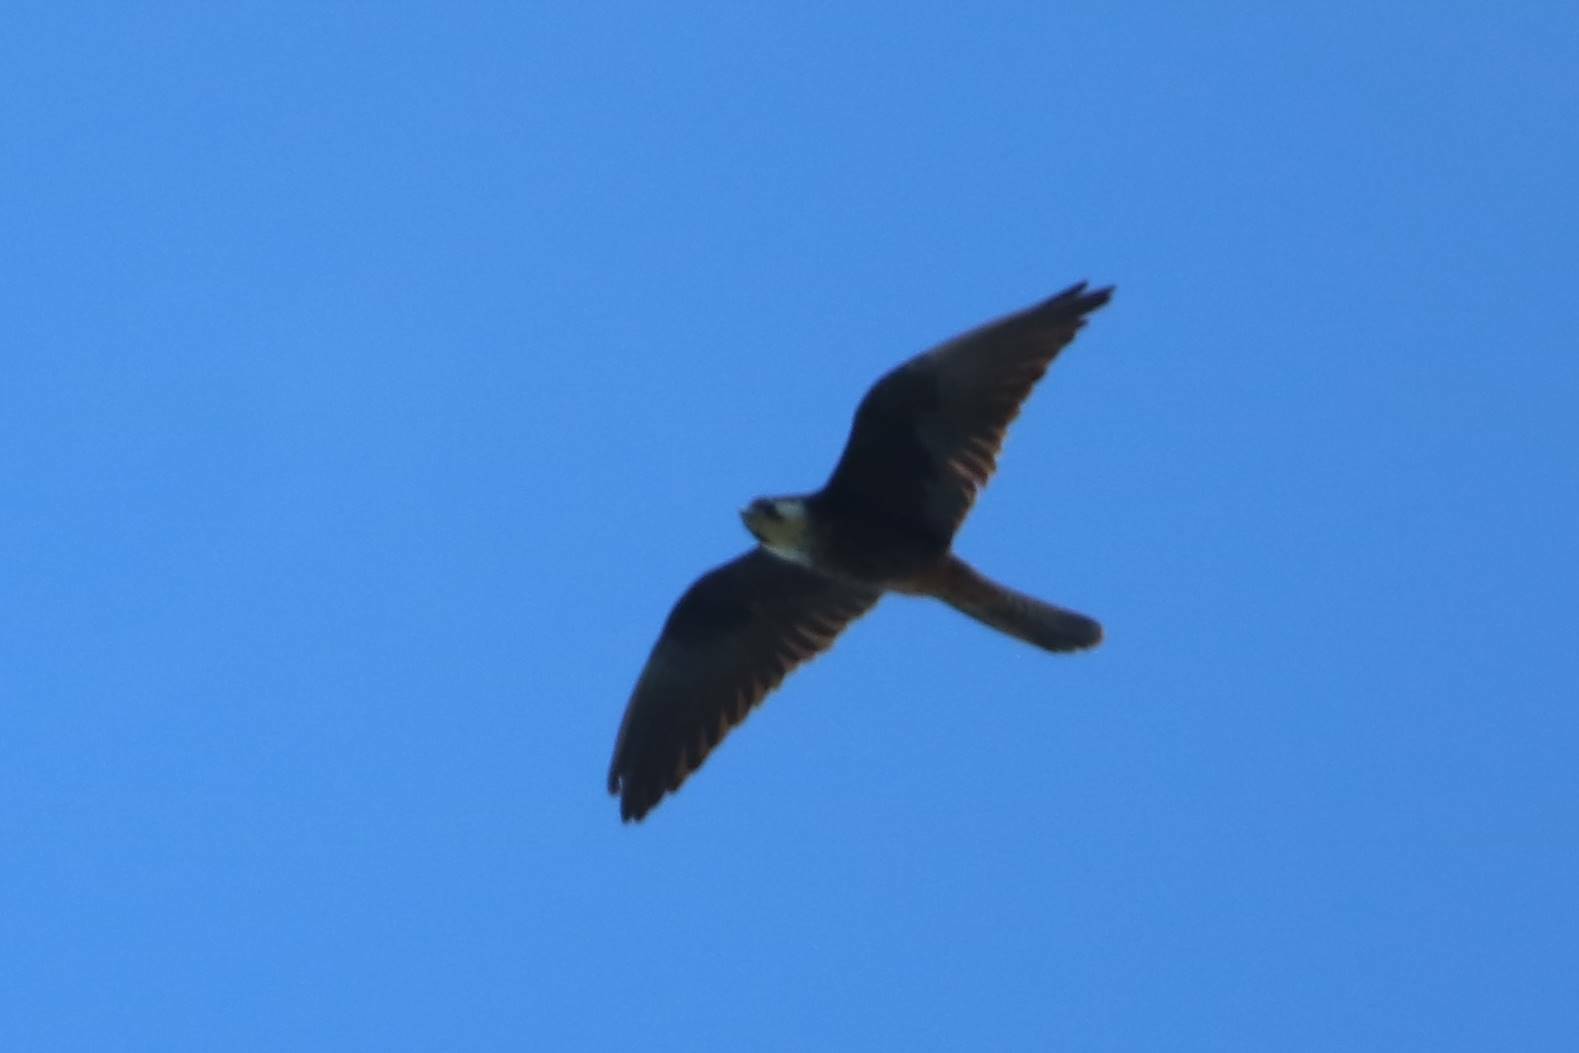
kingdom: Animalia
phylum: Chordata
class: Aves
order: Falconiformes
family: Falconidae
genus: Falco
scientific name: Falco eleonorae
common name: Eleonora's falcon
